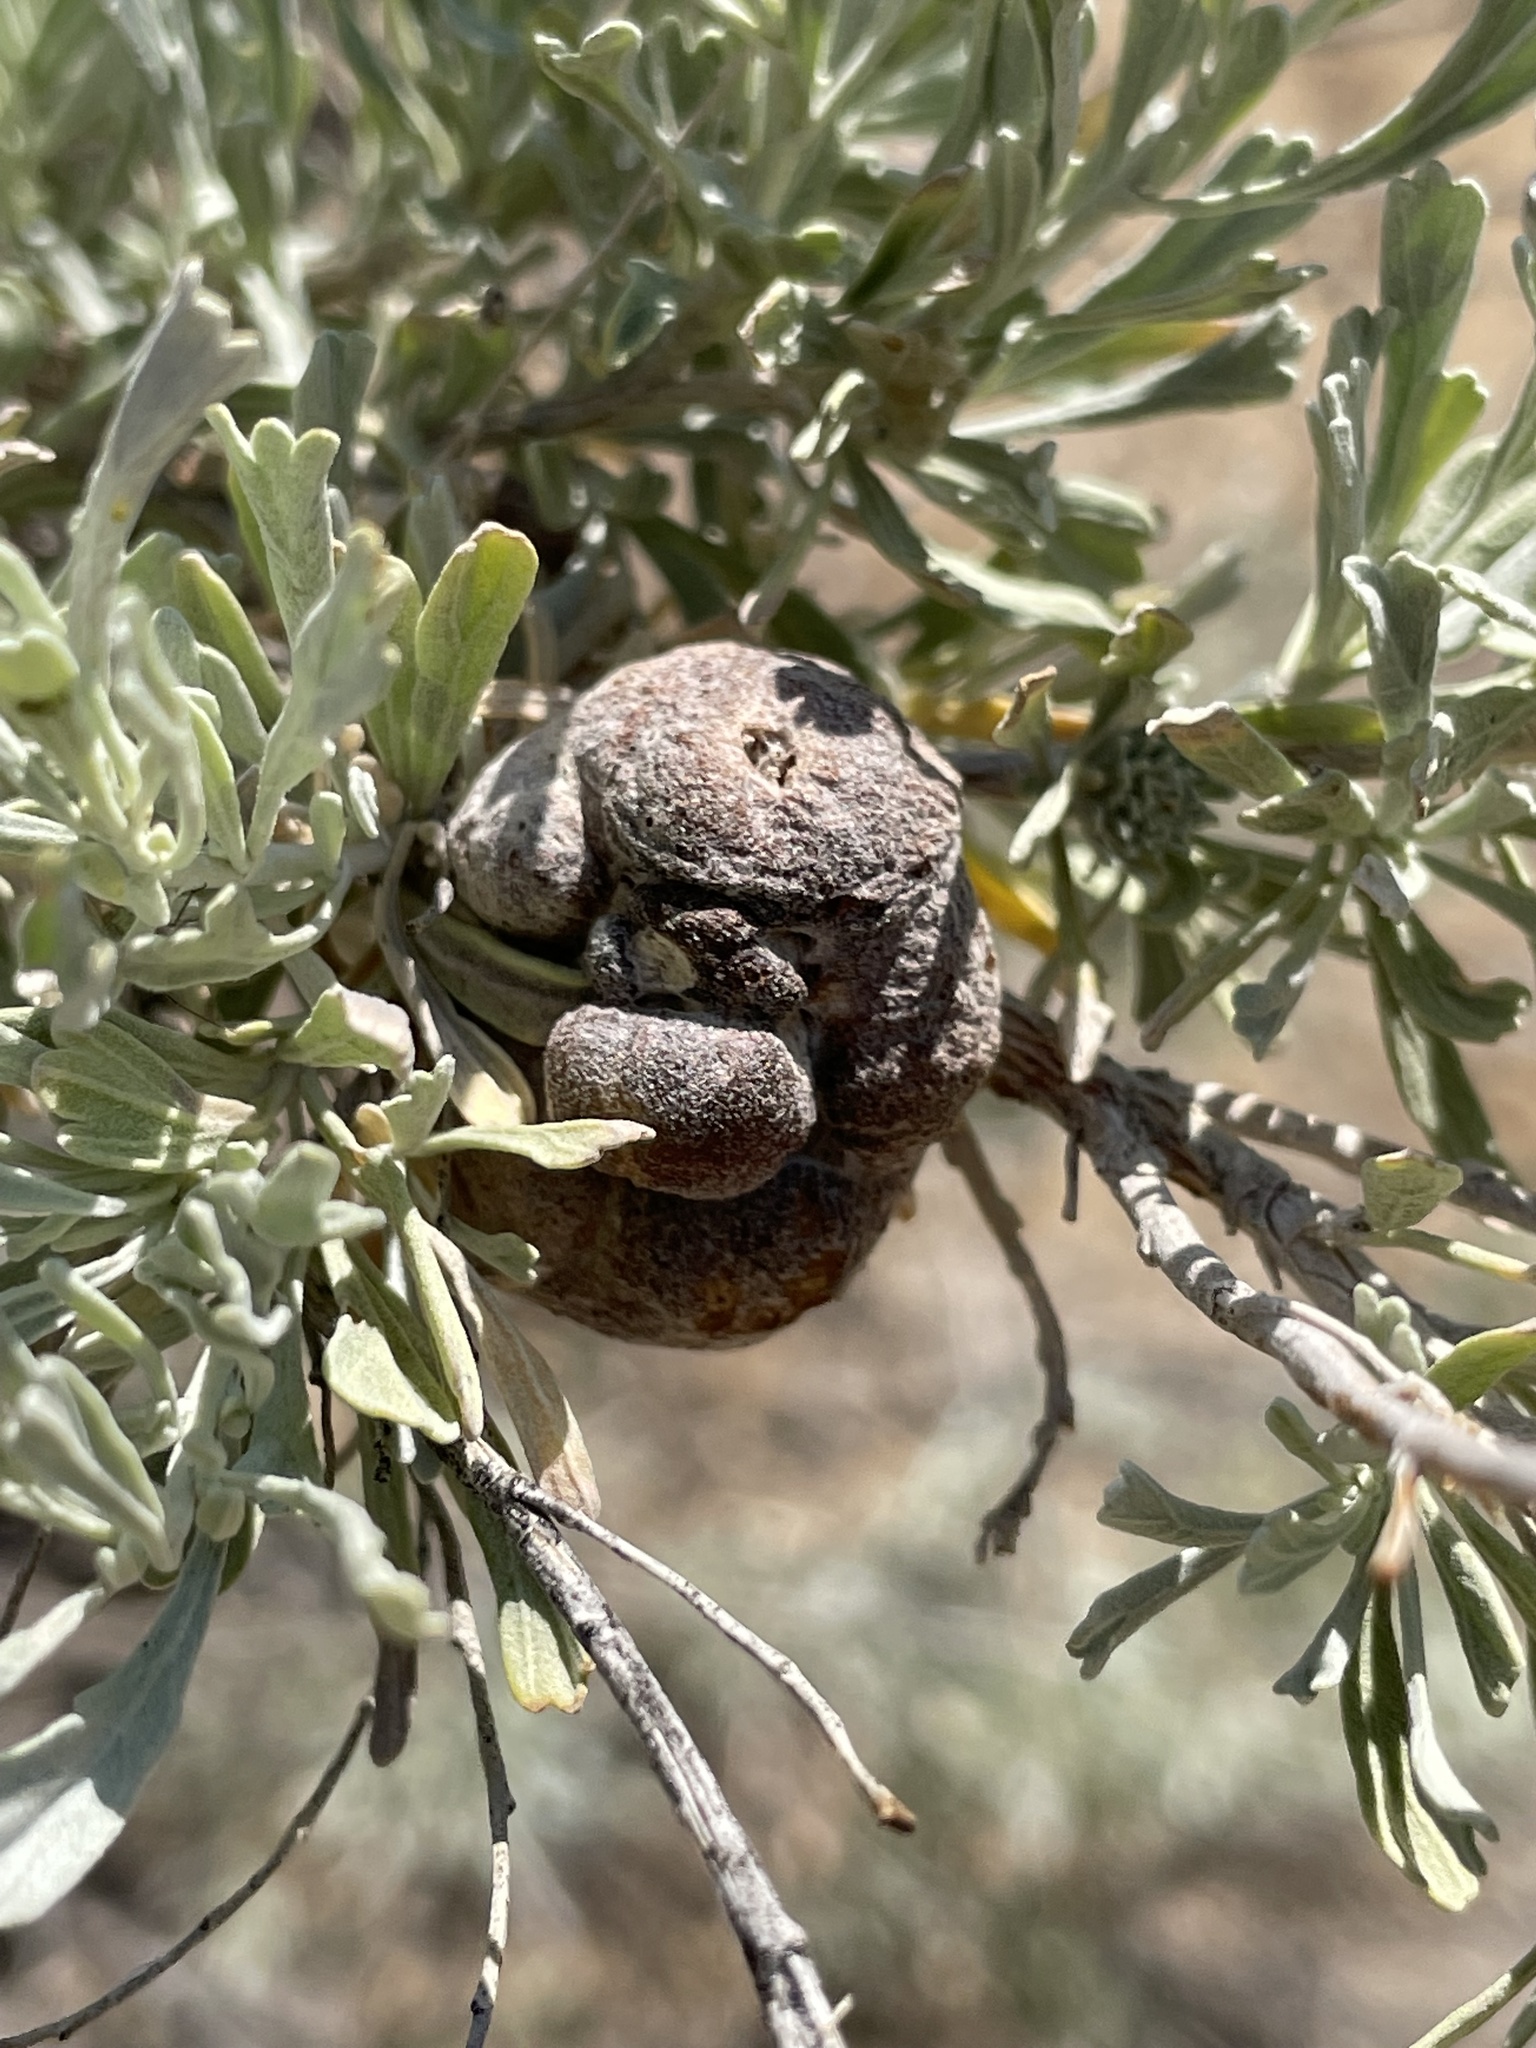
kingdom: Animalia
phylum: Arthropoda
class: Insecta
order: Diptera
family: Cecidomyiidae
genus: Rhopalomyia
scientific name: Rhopalomyia pomum
